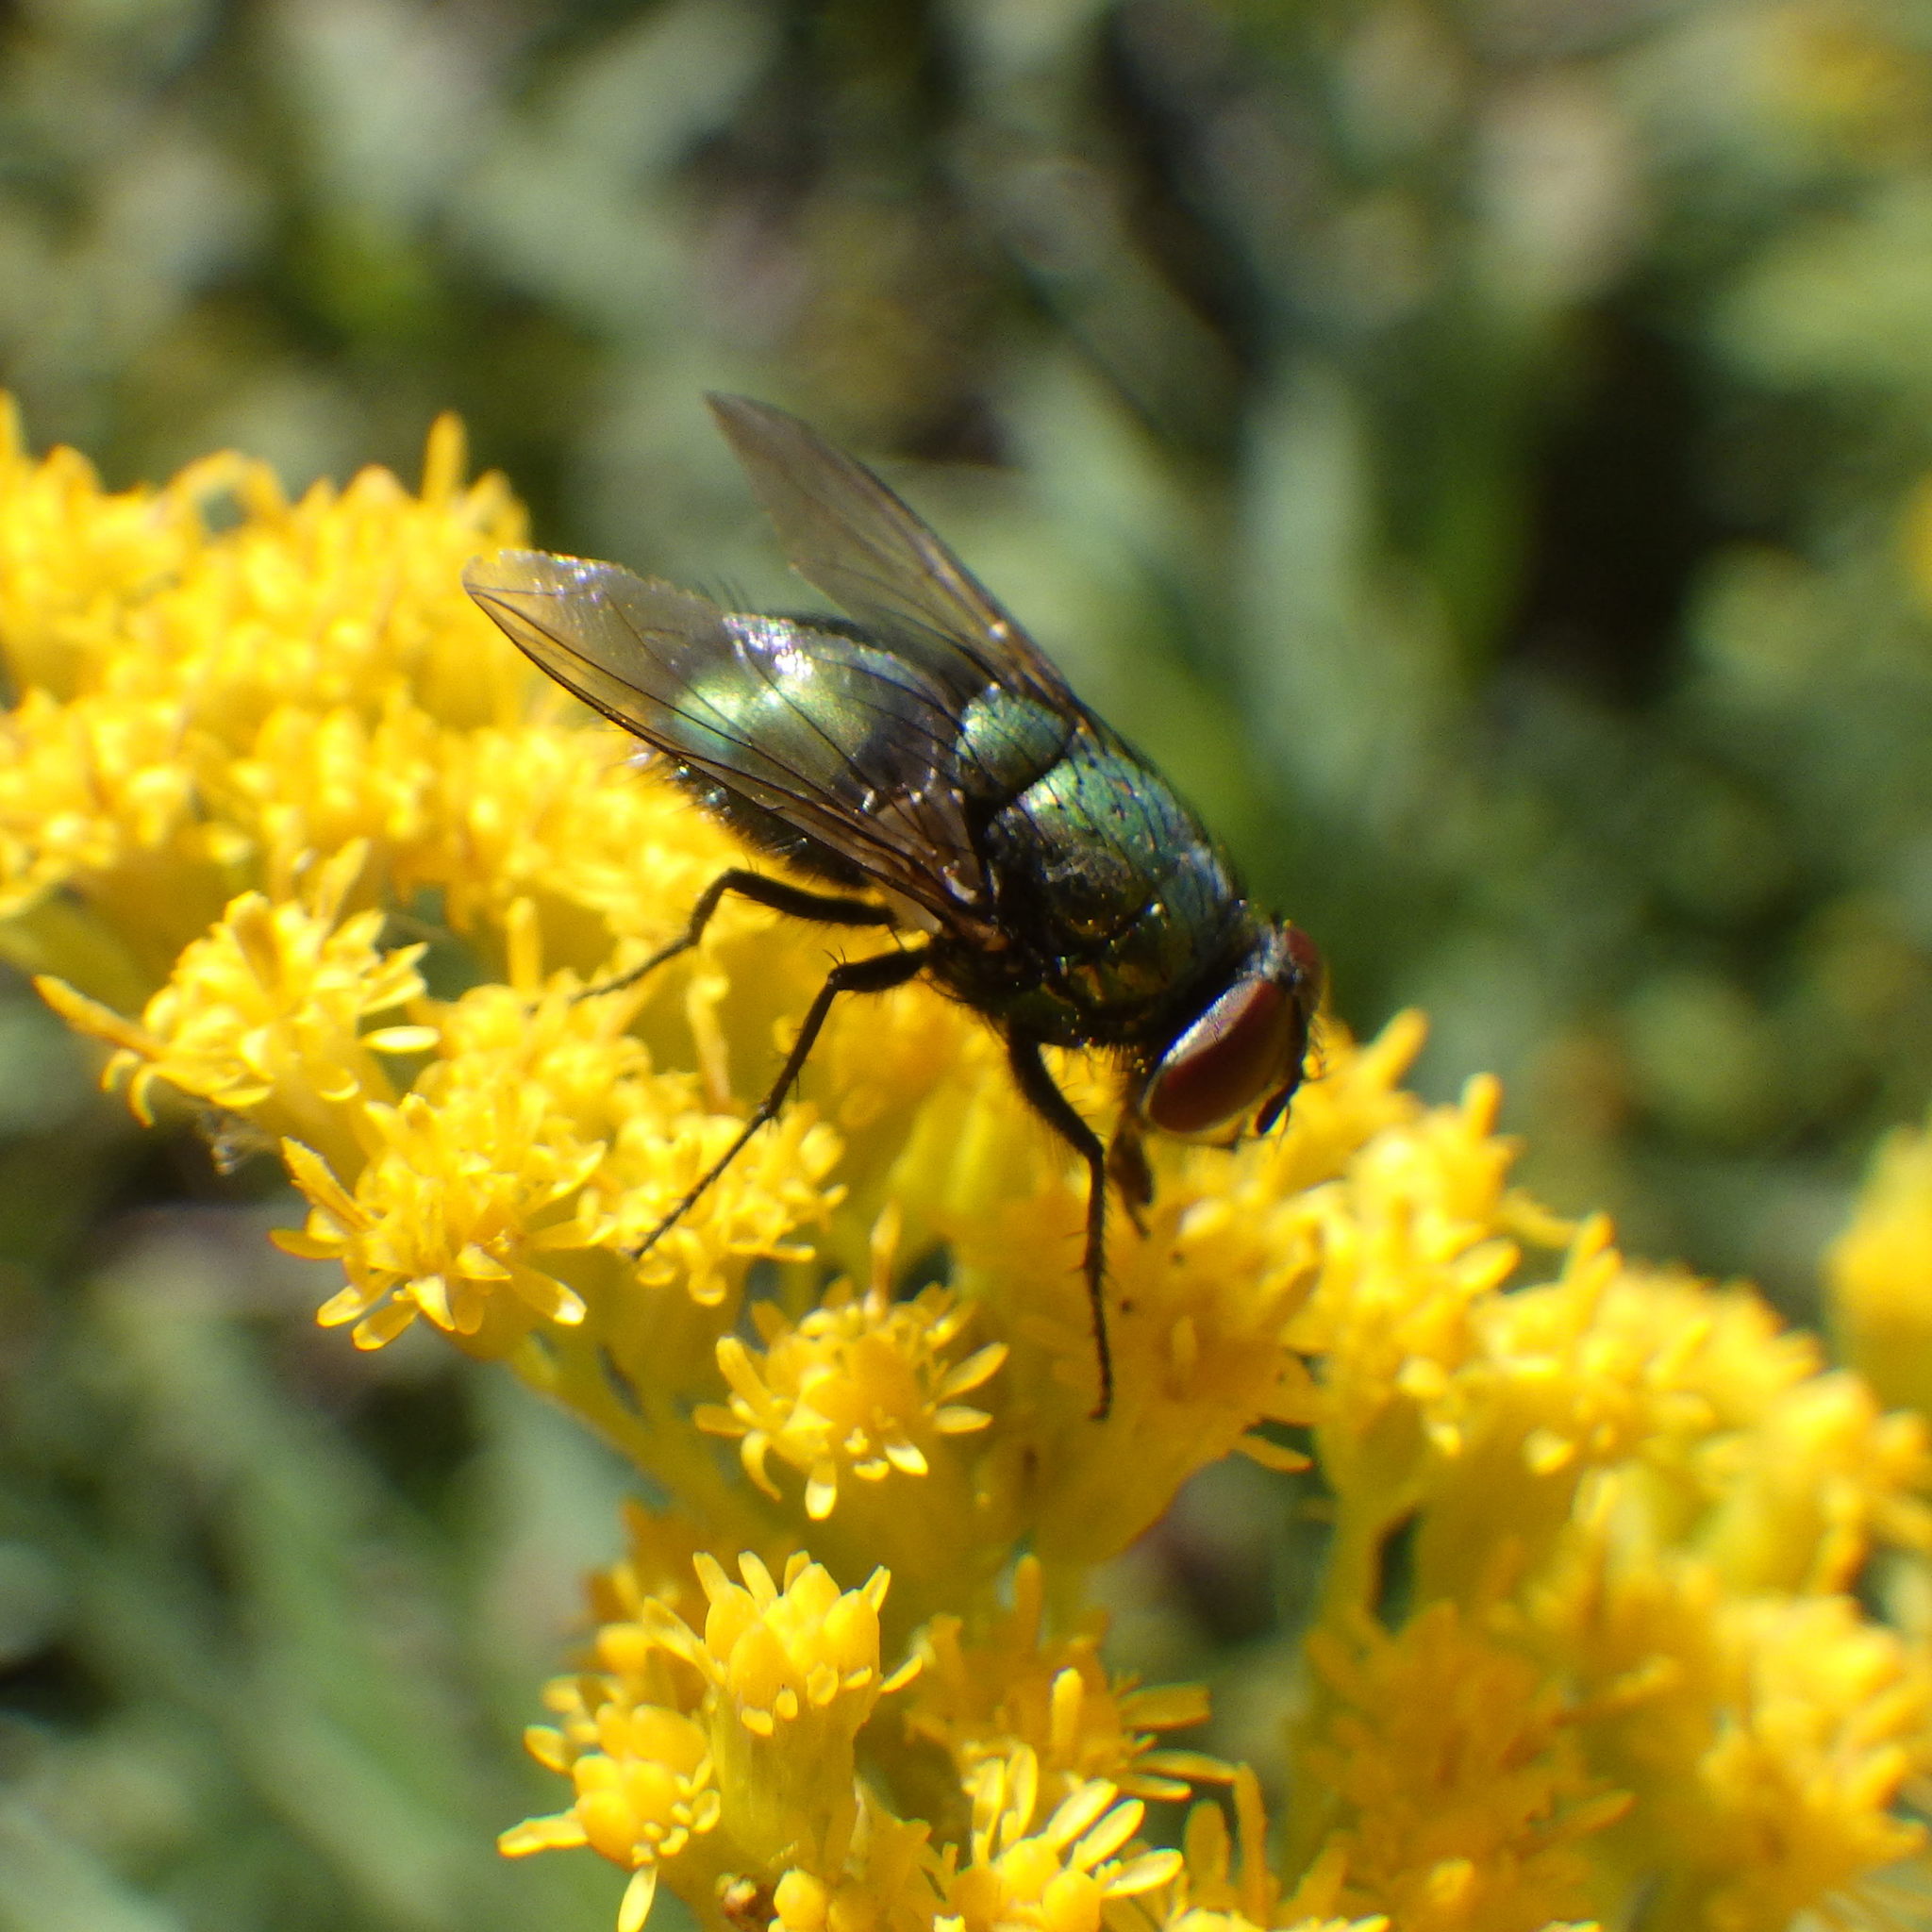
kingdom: Animalia
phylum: Arthropoda
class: Insecta
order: Diptera
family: Calliphoridae
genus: Lucilia
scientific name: Lucilia sericata
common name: Blow fly
